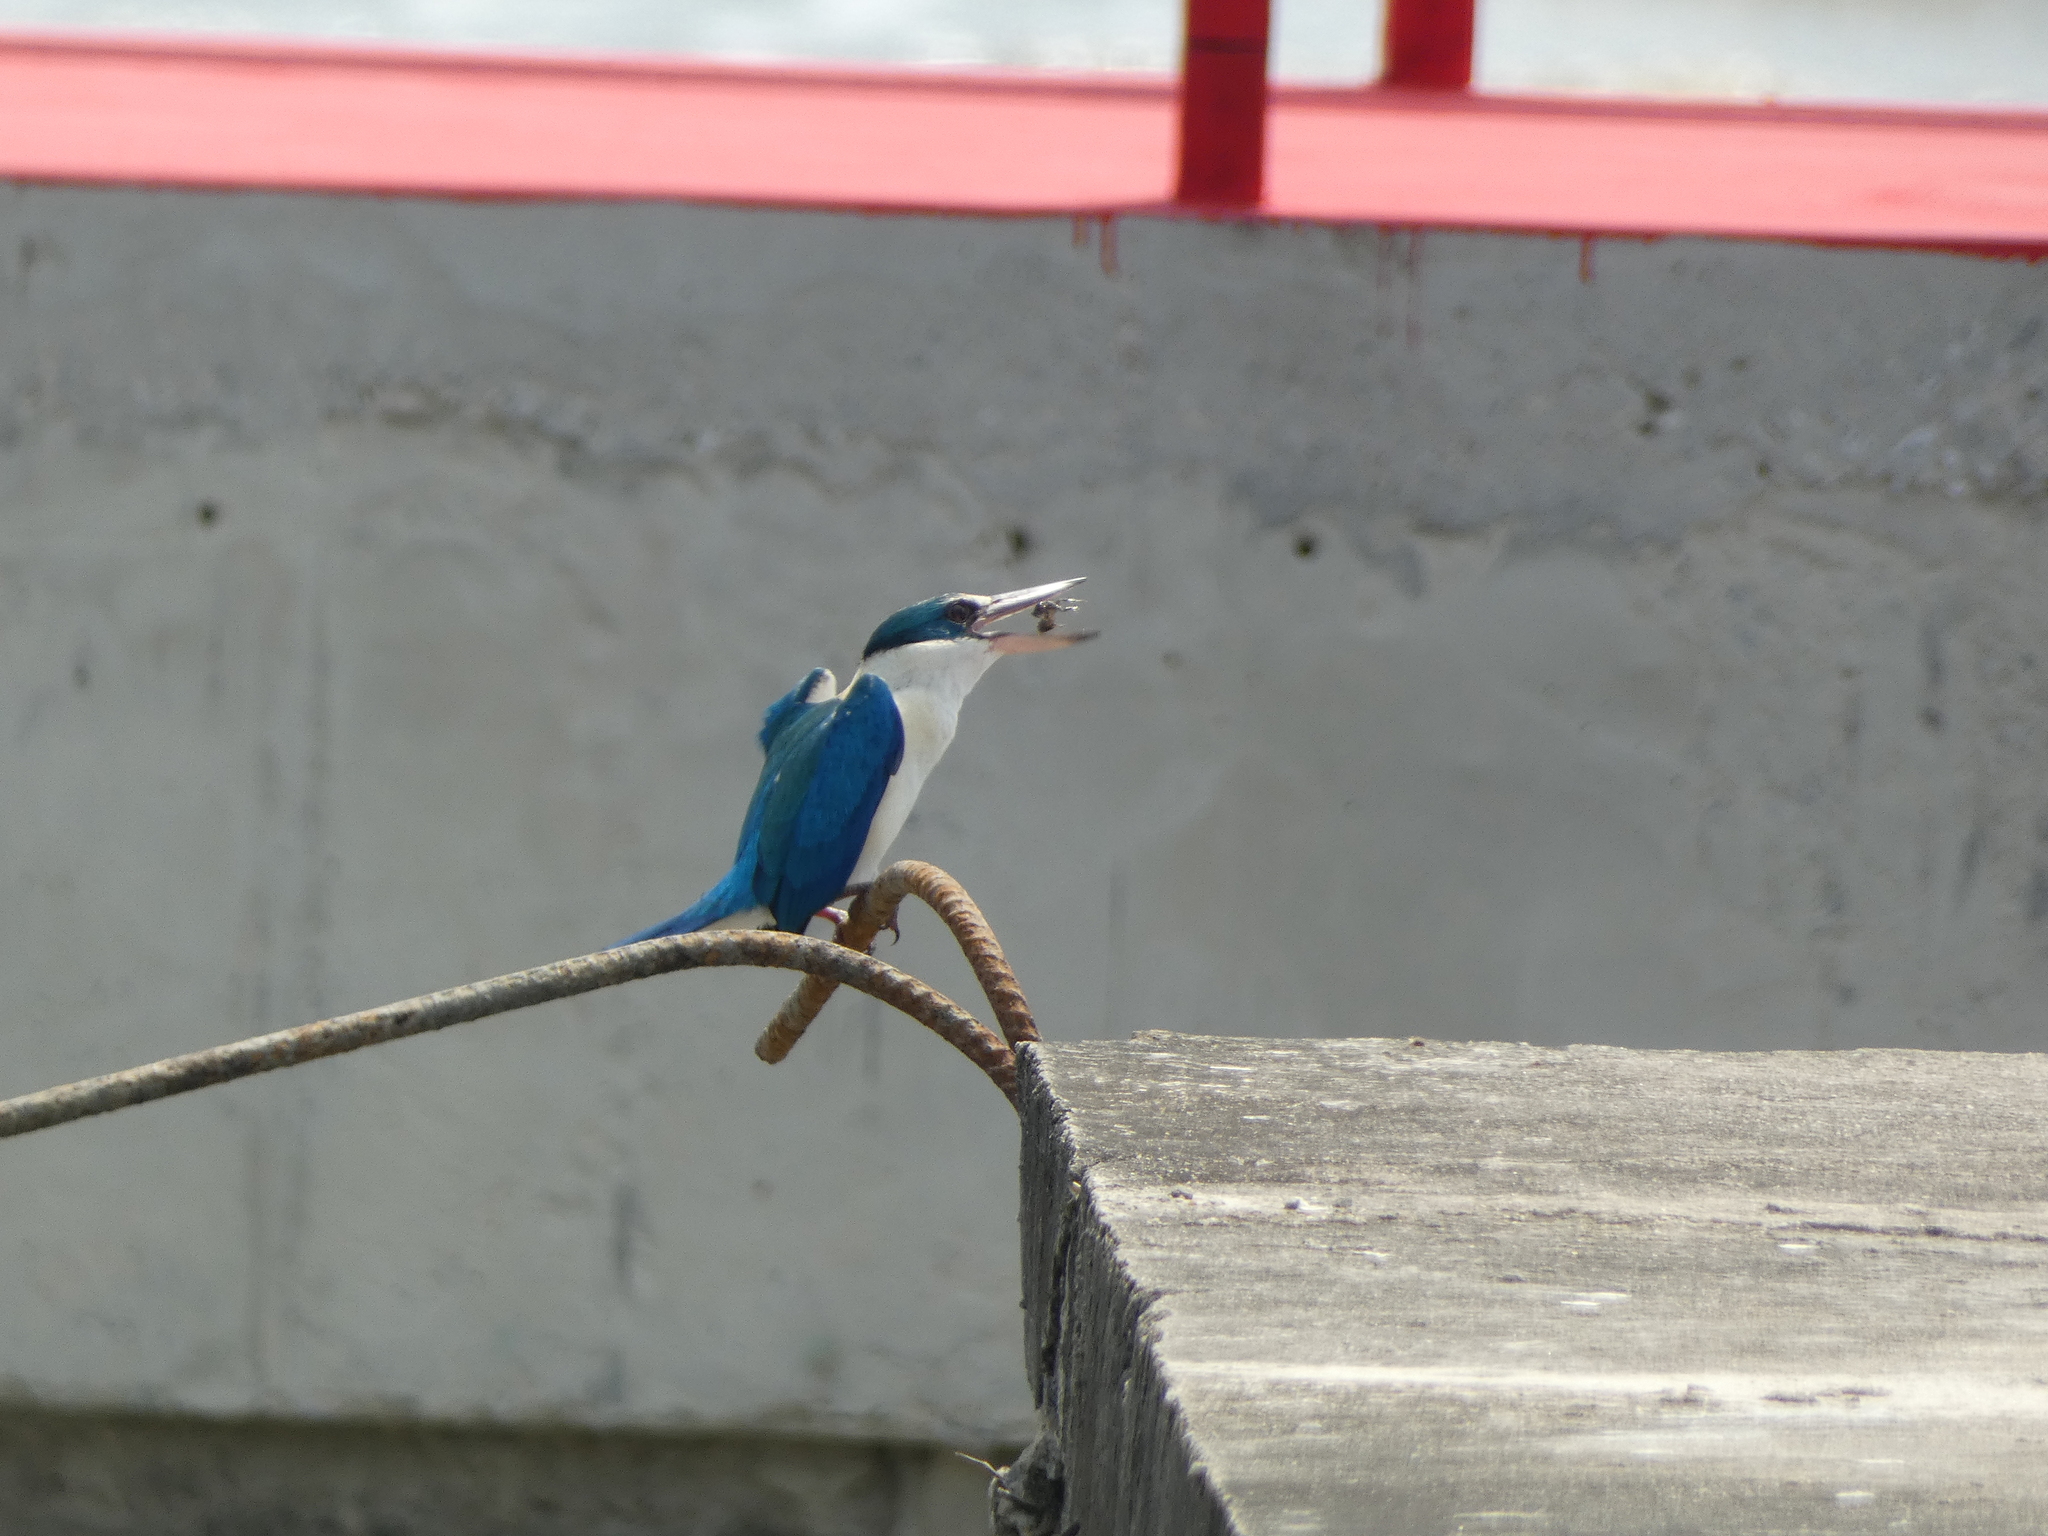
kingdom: Animalia
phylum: Chordata
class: Aves
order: Coraciiformes
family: Alcedinidae
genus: Todiramphus
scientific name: Todiramphus chloris
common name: Collared kingfisher
